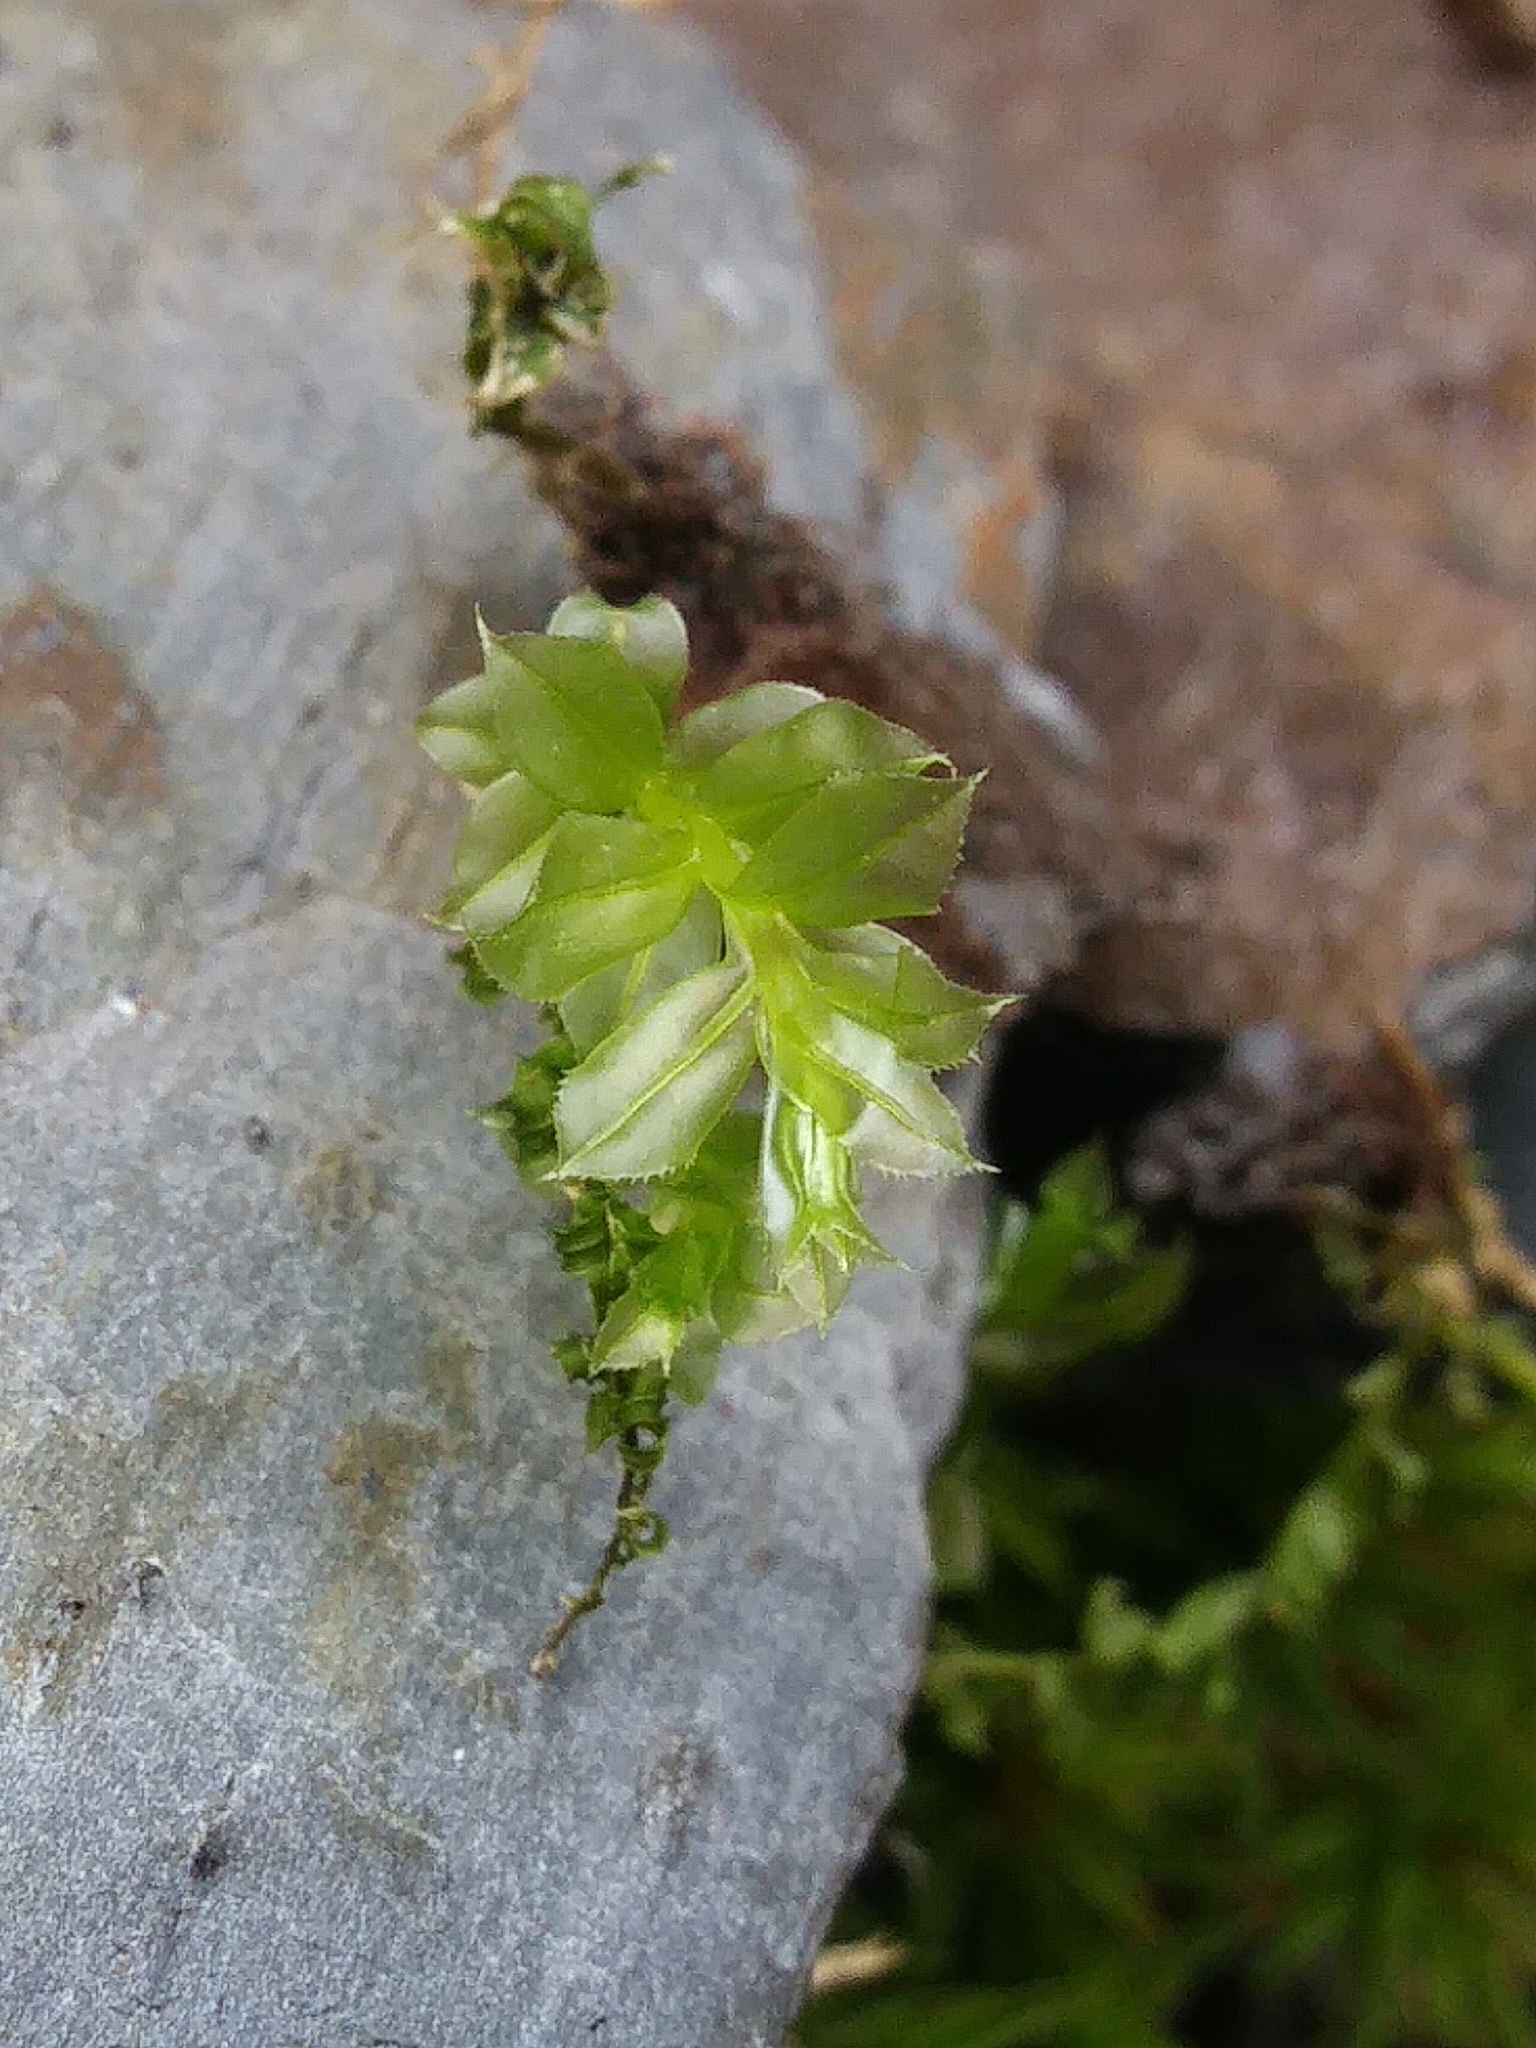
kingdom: Plantae
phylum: Bryophyta
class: Bryopsida
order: Bryales
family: Mniaceae
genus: Plagiomnium
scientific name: Plagiomnium cuspidatum
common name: Woodsy leafy moss
